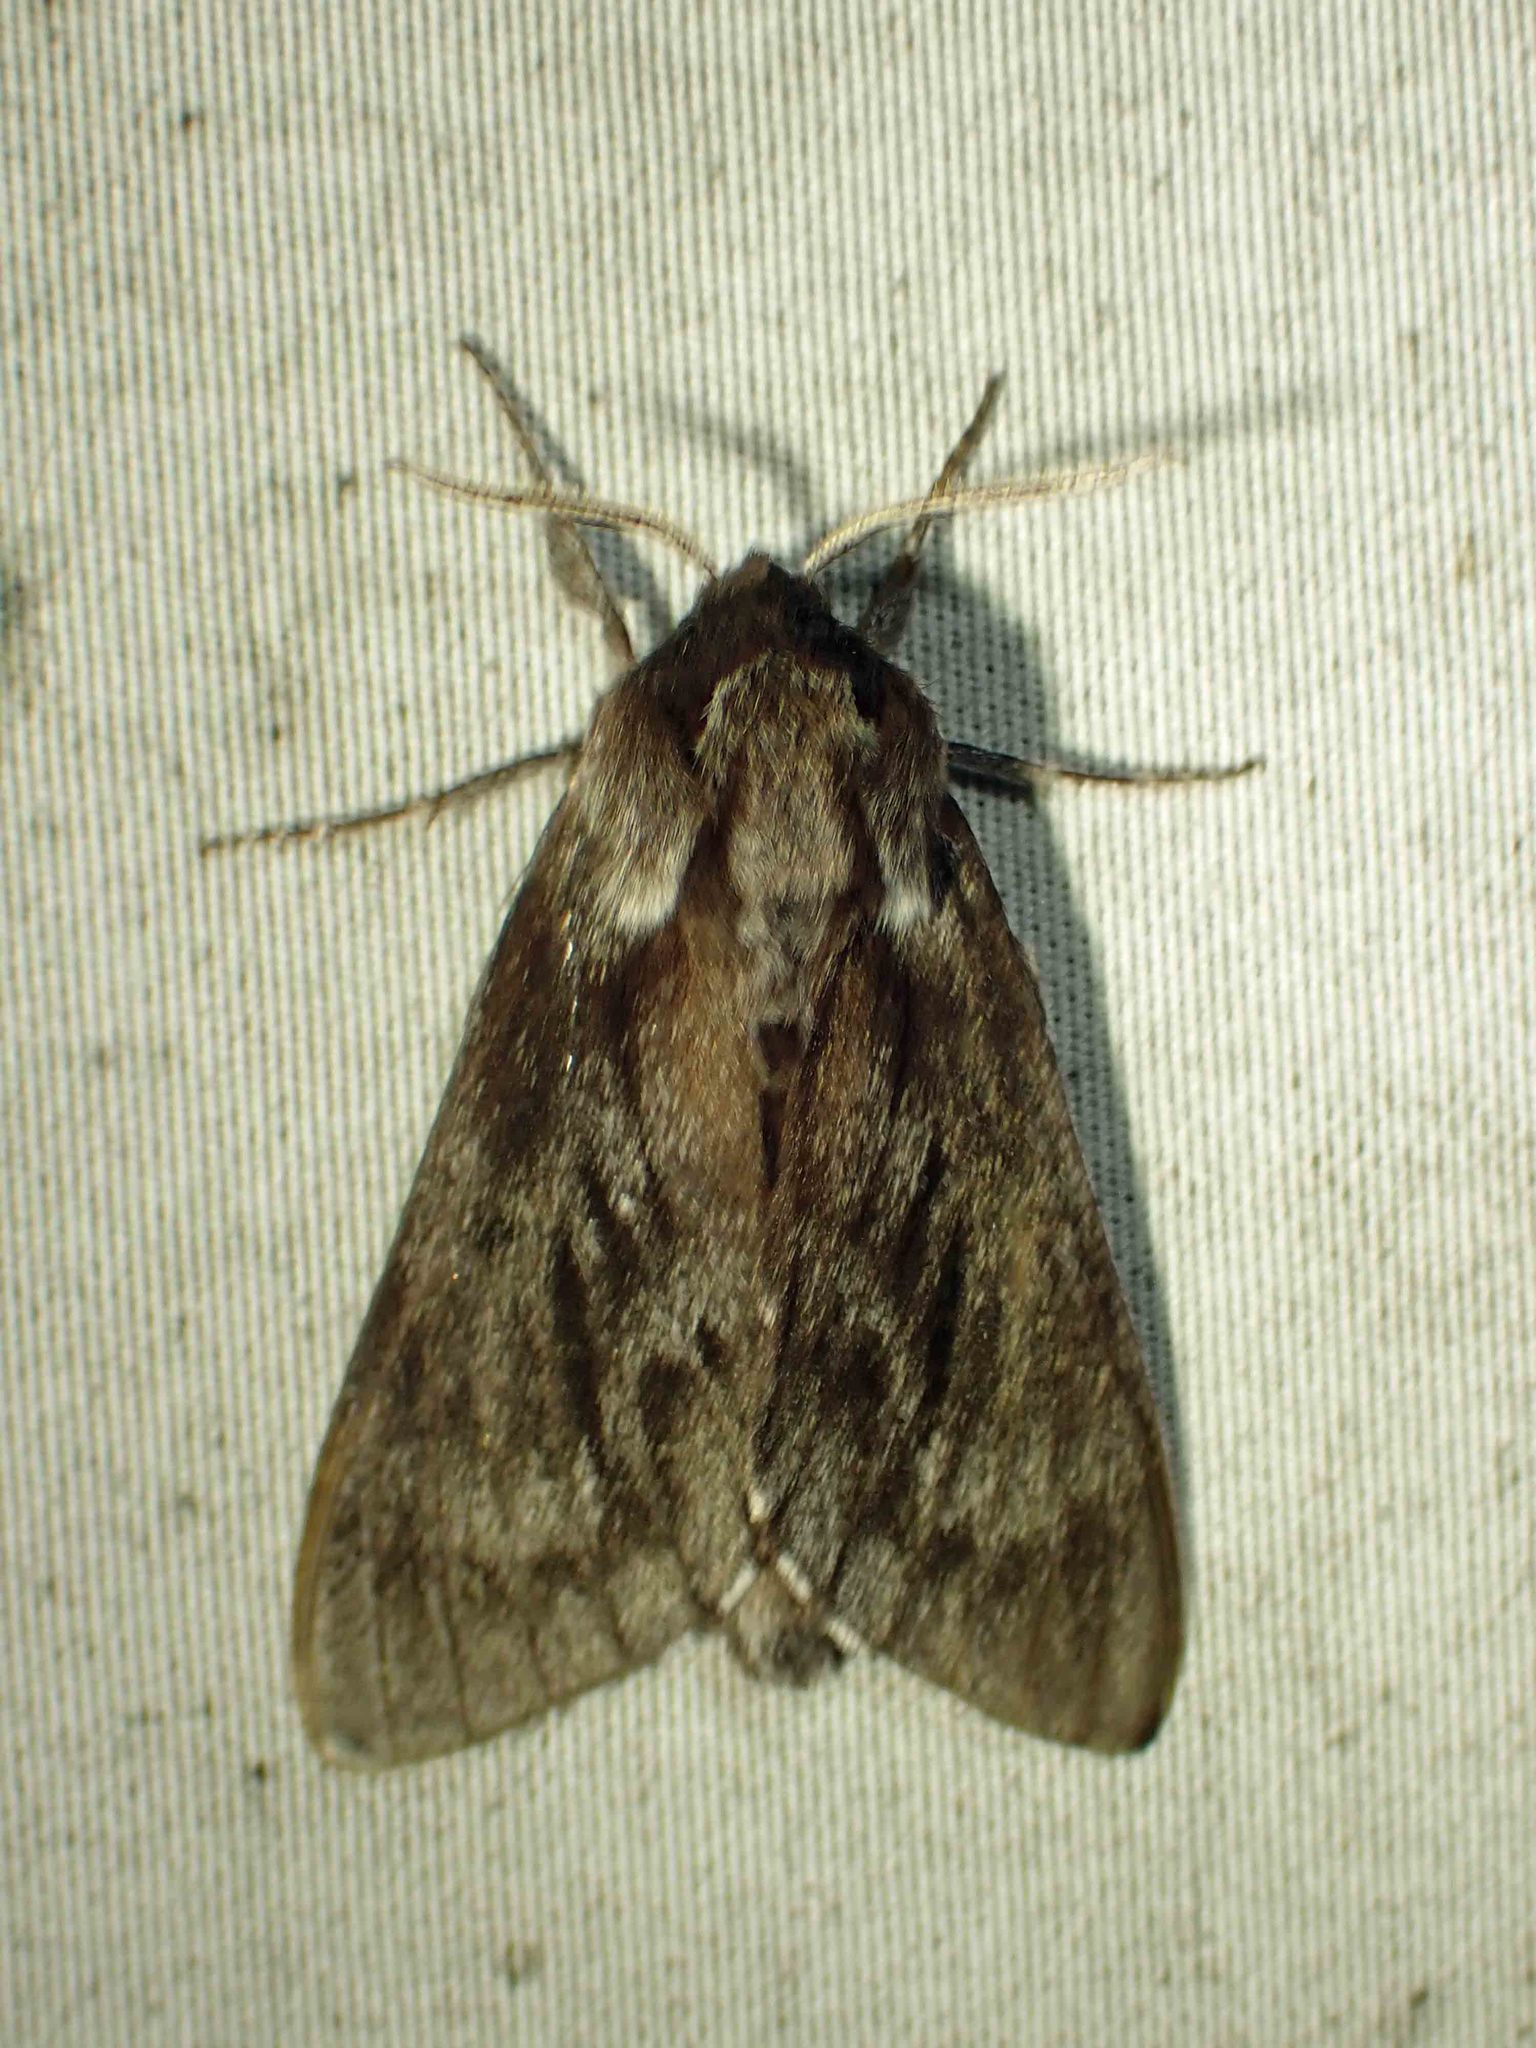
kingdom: Animalia
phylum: Arthropoda
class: Insecta
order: Lepidoptera
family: Sphingidae
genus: Lapara
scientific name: Lapara bombycoides
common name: Northern pine sphinx
